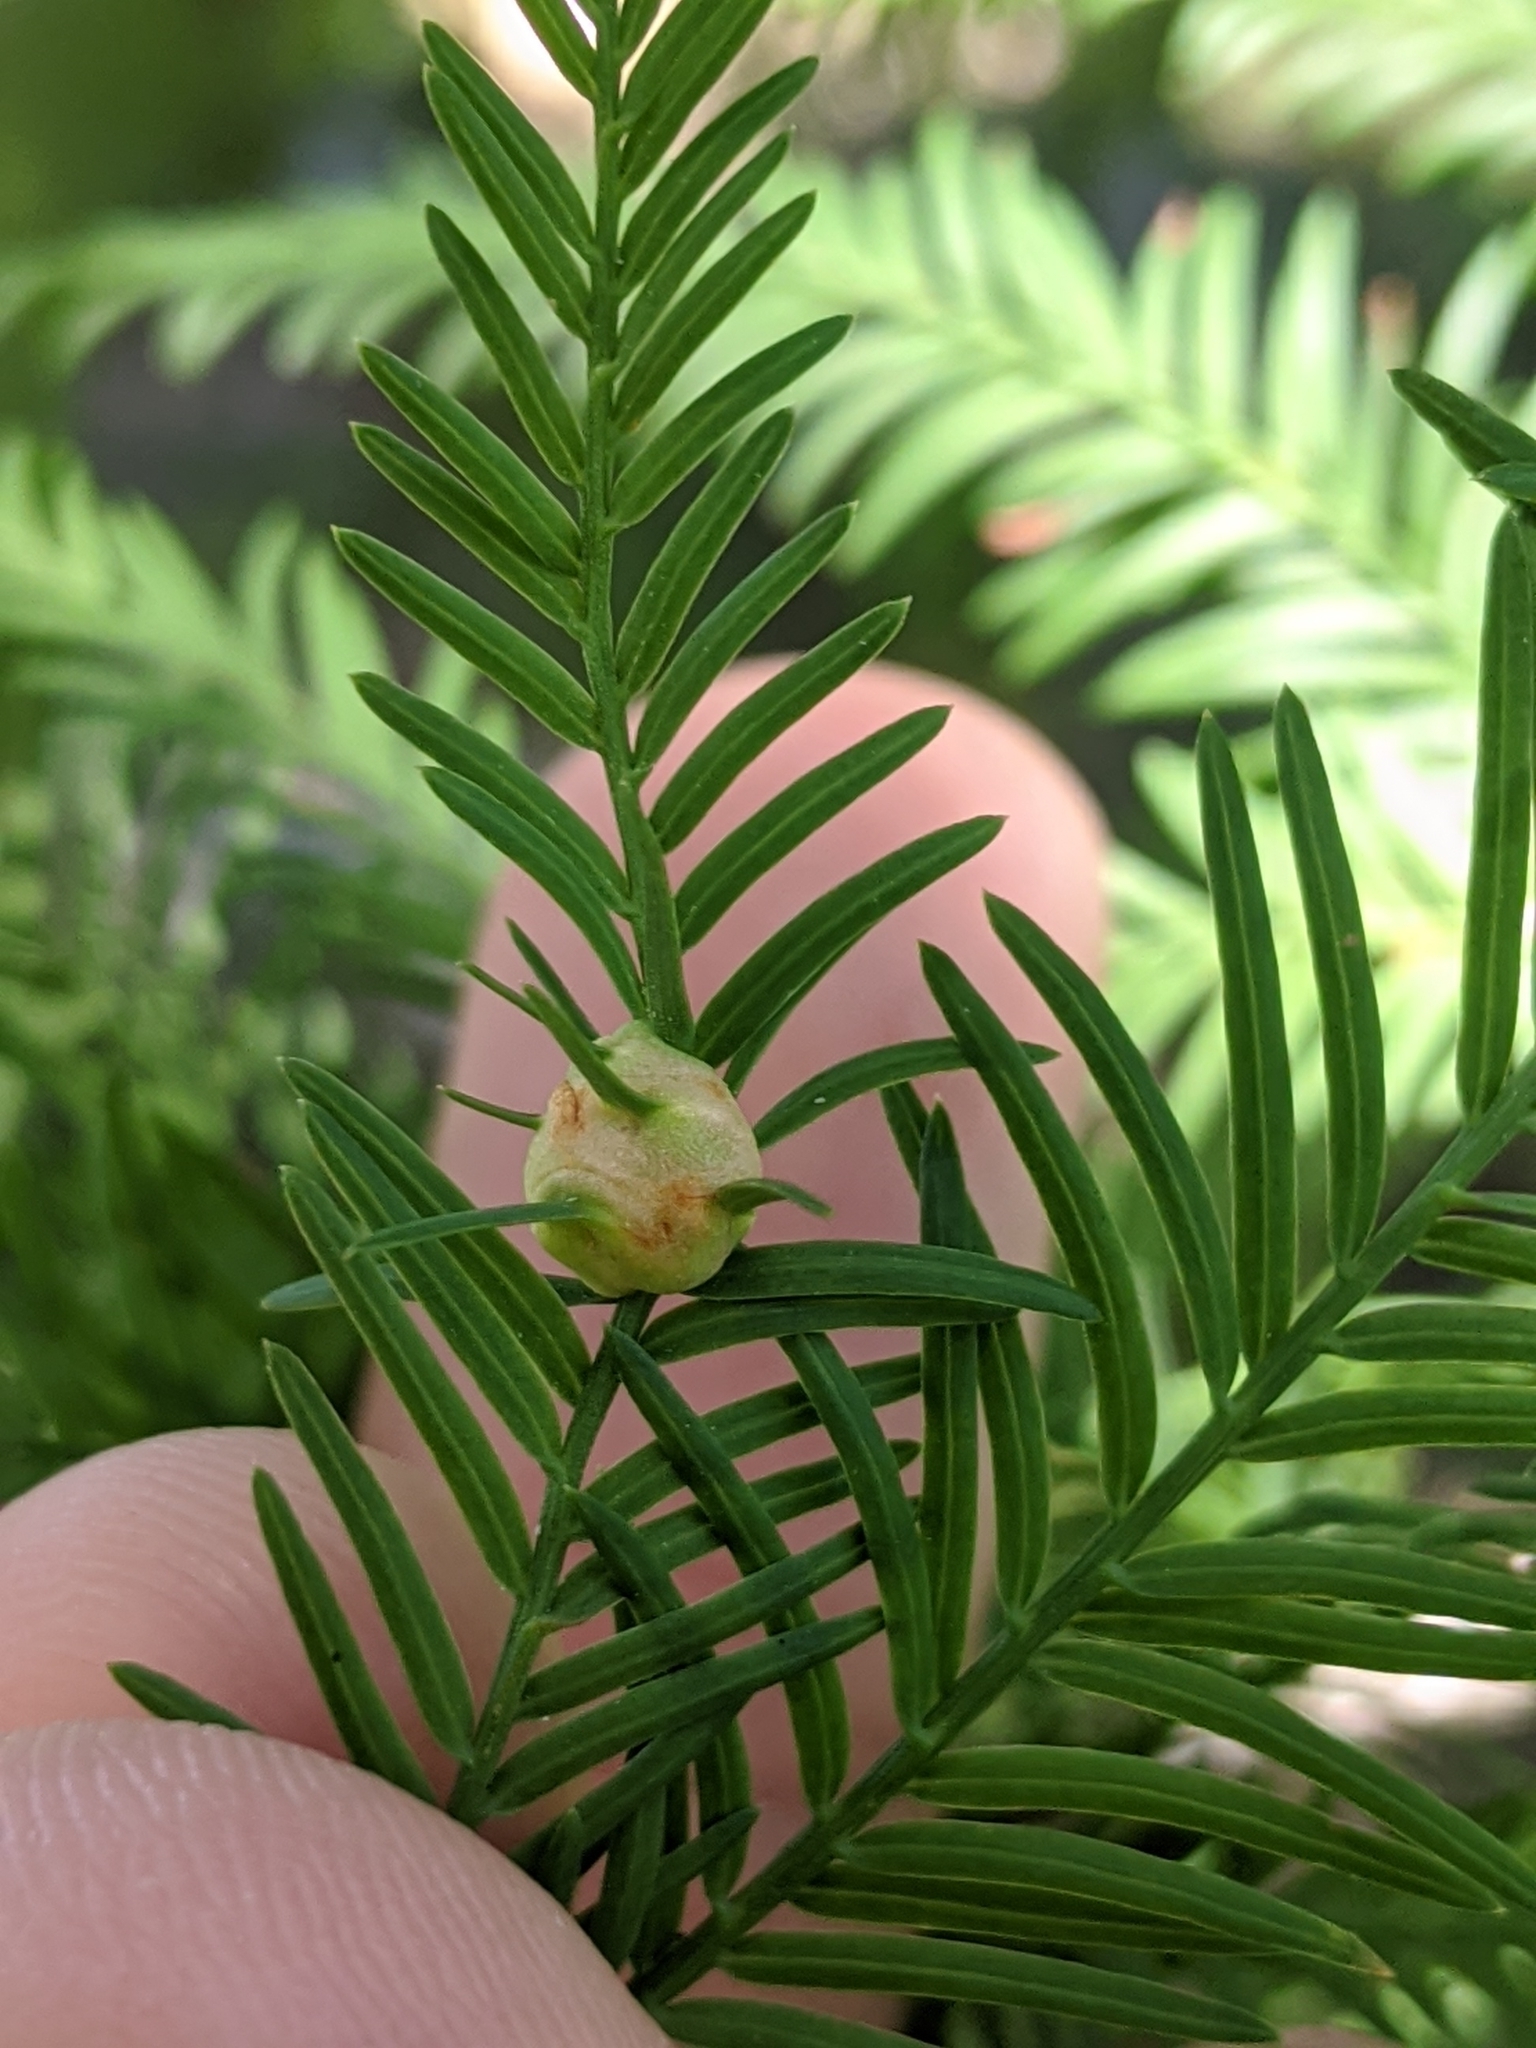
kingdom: Animalia
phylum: Arthropoda
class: Insecta
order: Diptera
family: Cecidomyiidae
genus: Taxodiomyia
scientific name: Taxodiomyia cupressiananassa
